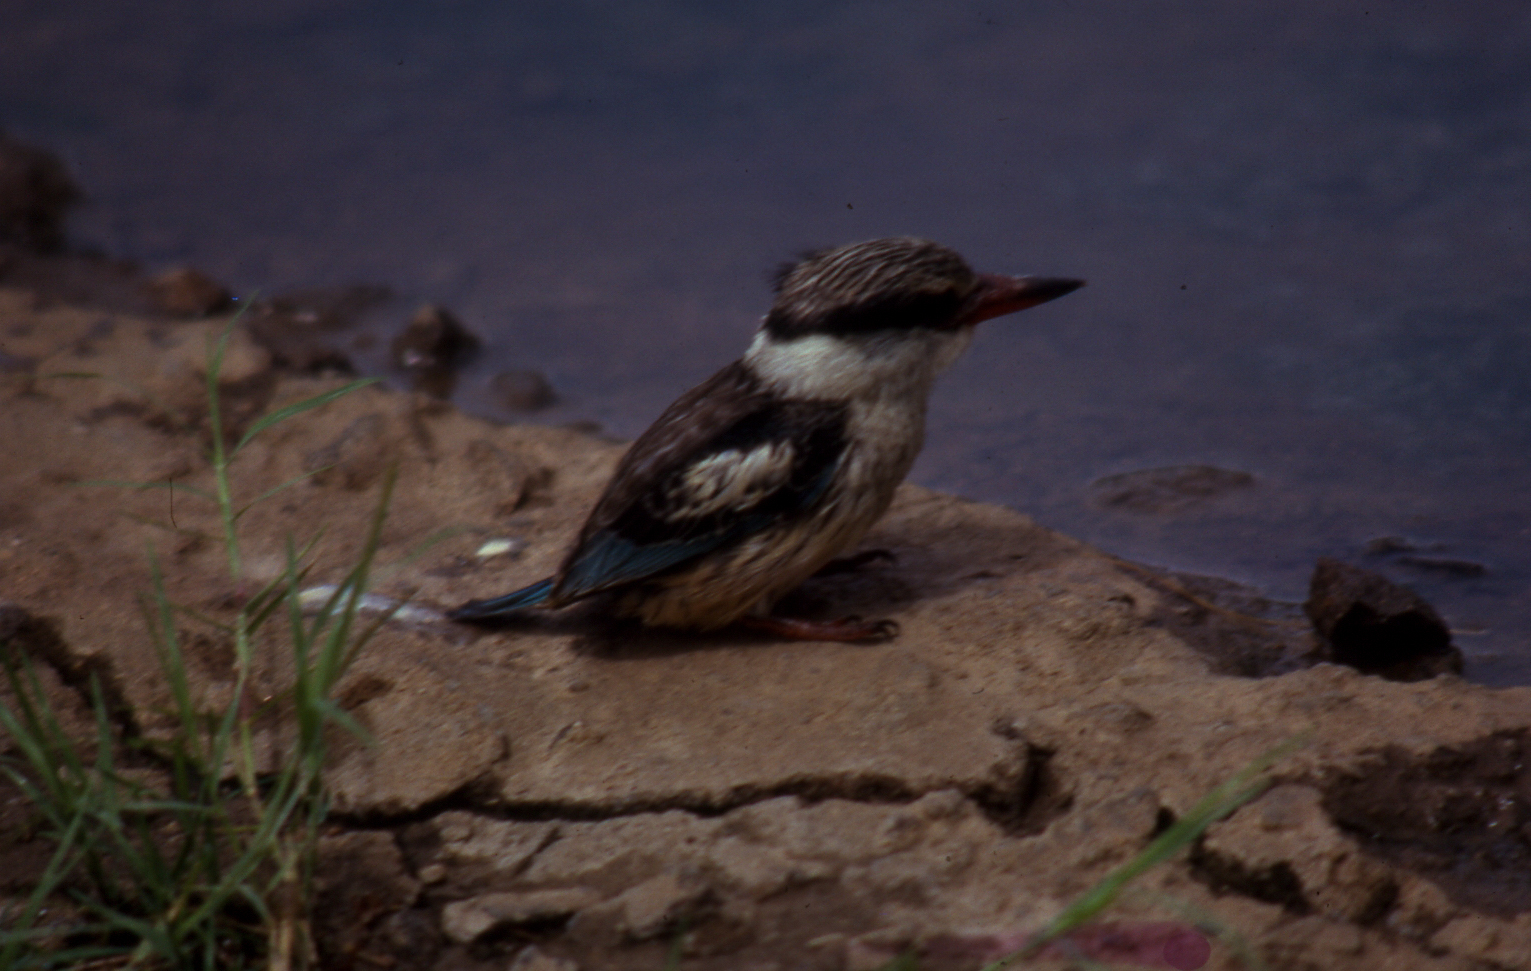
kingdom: Animalia
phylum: Chordata
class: Aves
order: Coraciiformes
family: Alcedinidae
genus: Halcyon
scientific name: Halcyon chelicuti
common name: Striped kingfisher
